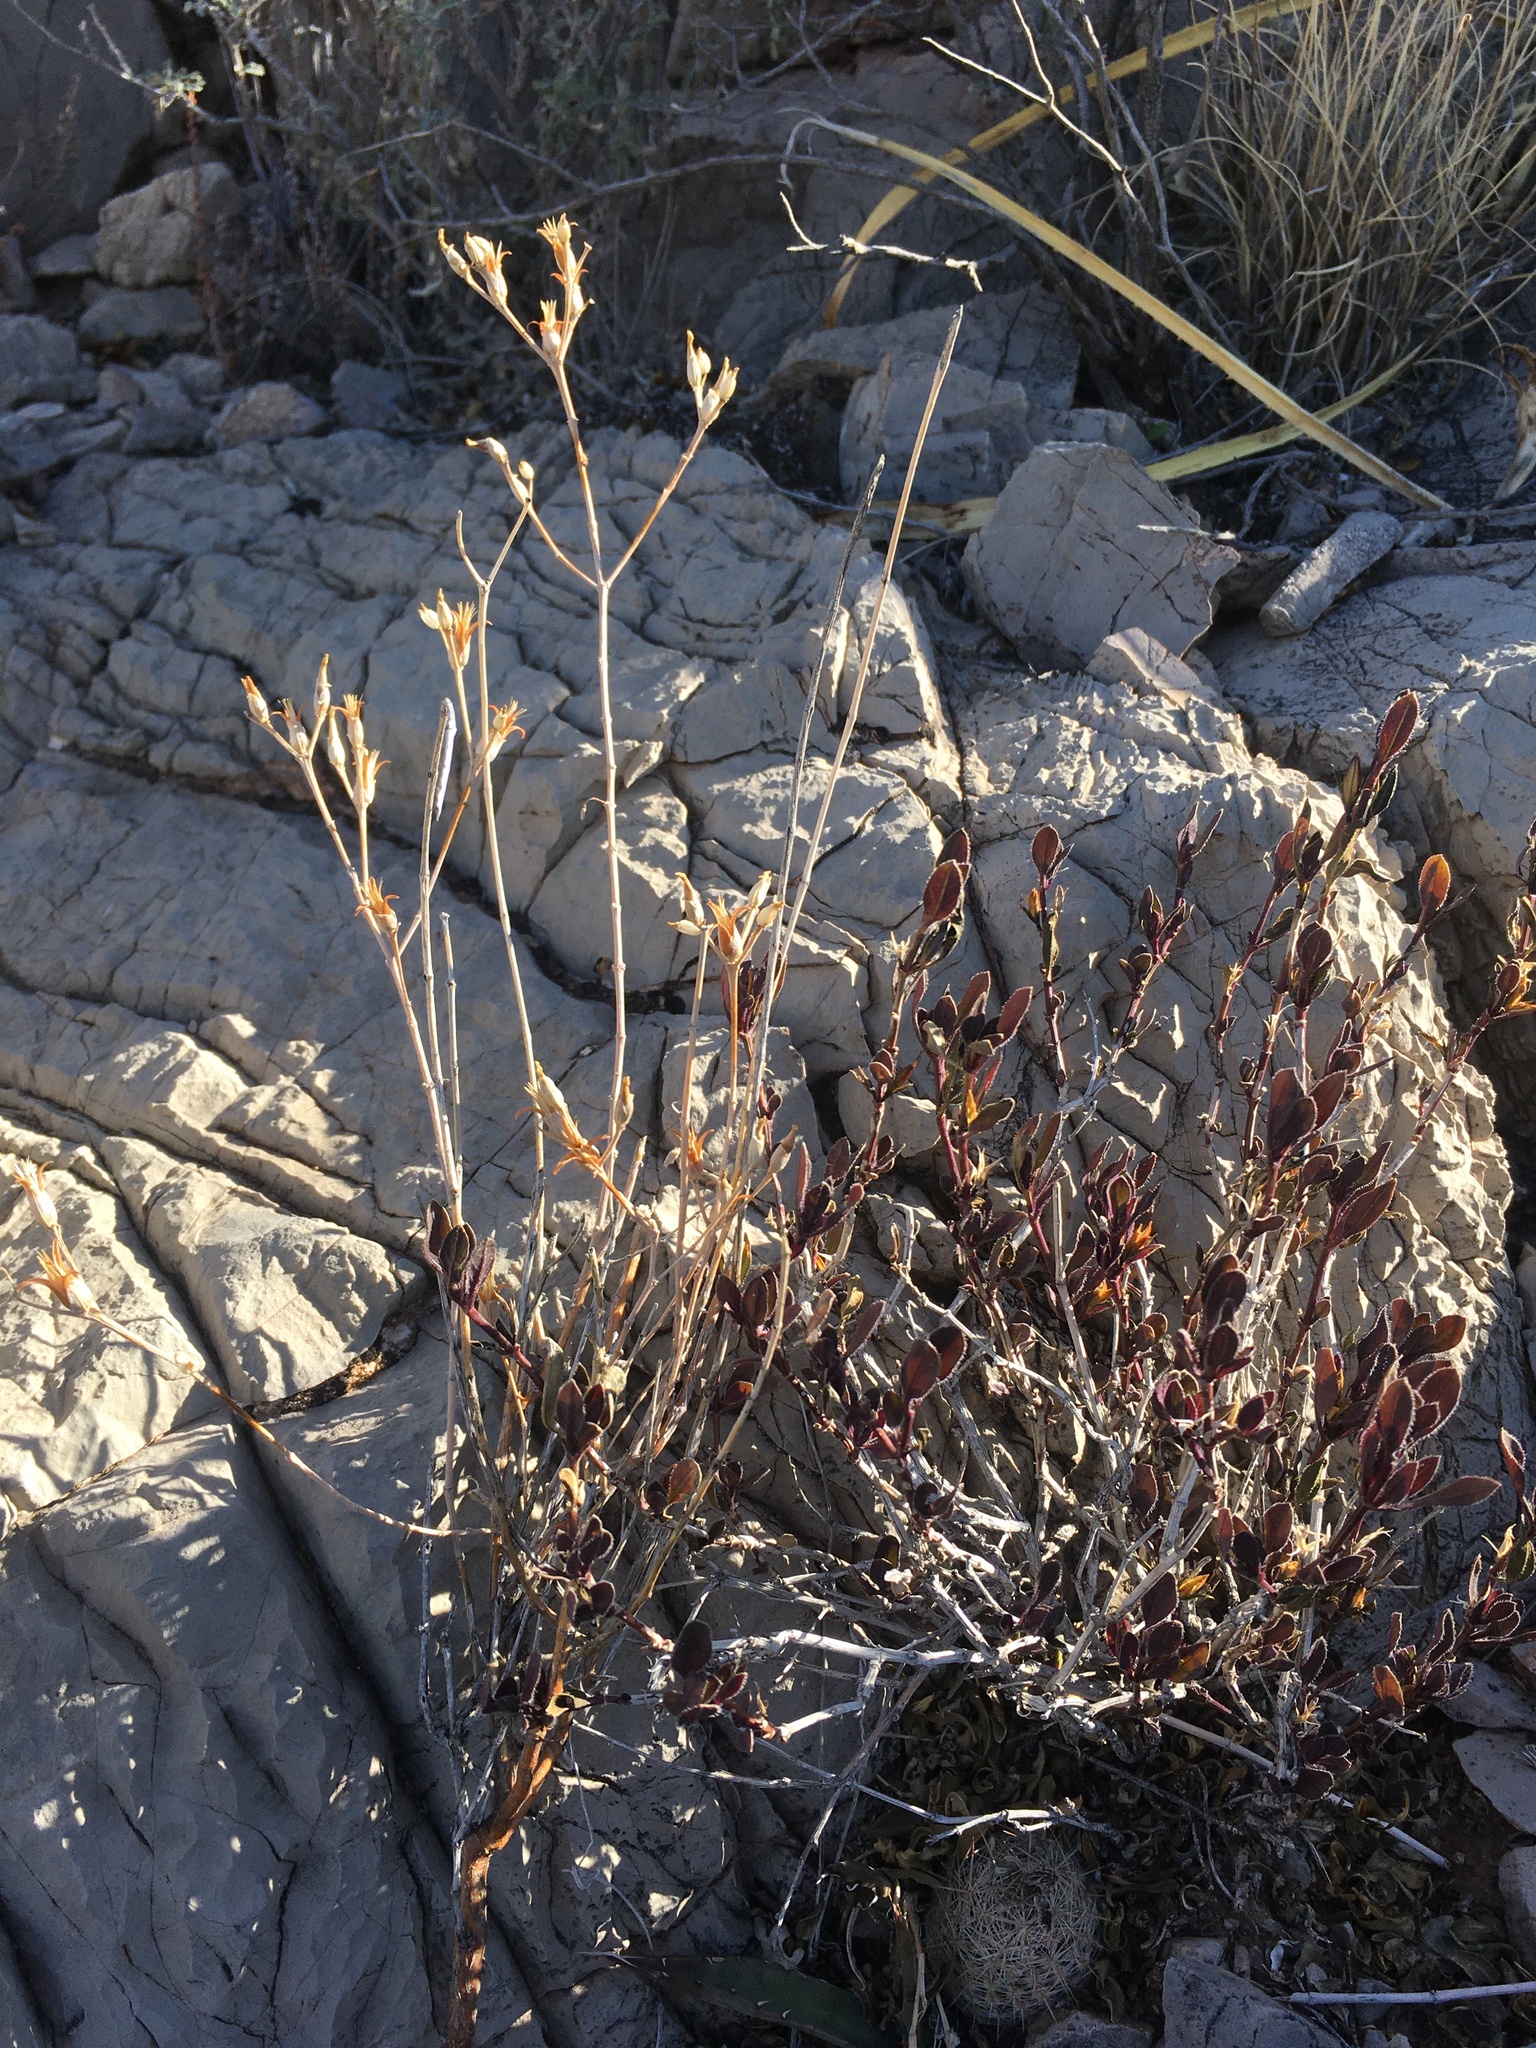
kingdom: Plantae
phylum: Tracheophyta
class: Magnoliopsida
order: Caryophyllales
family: Anacampserotaceae
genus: Grahamia
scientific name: Grahamia frutescens
